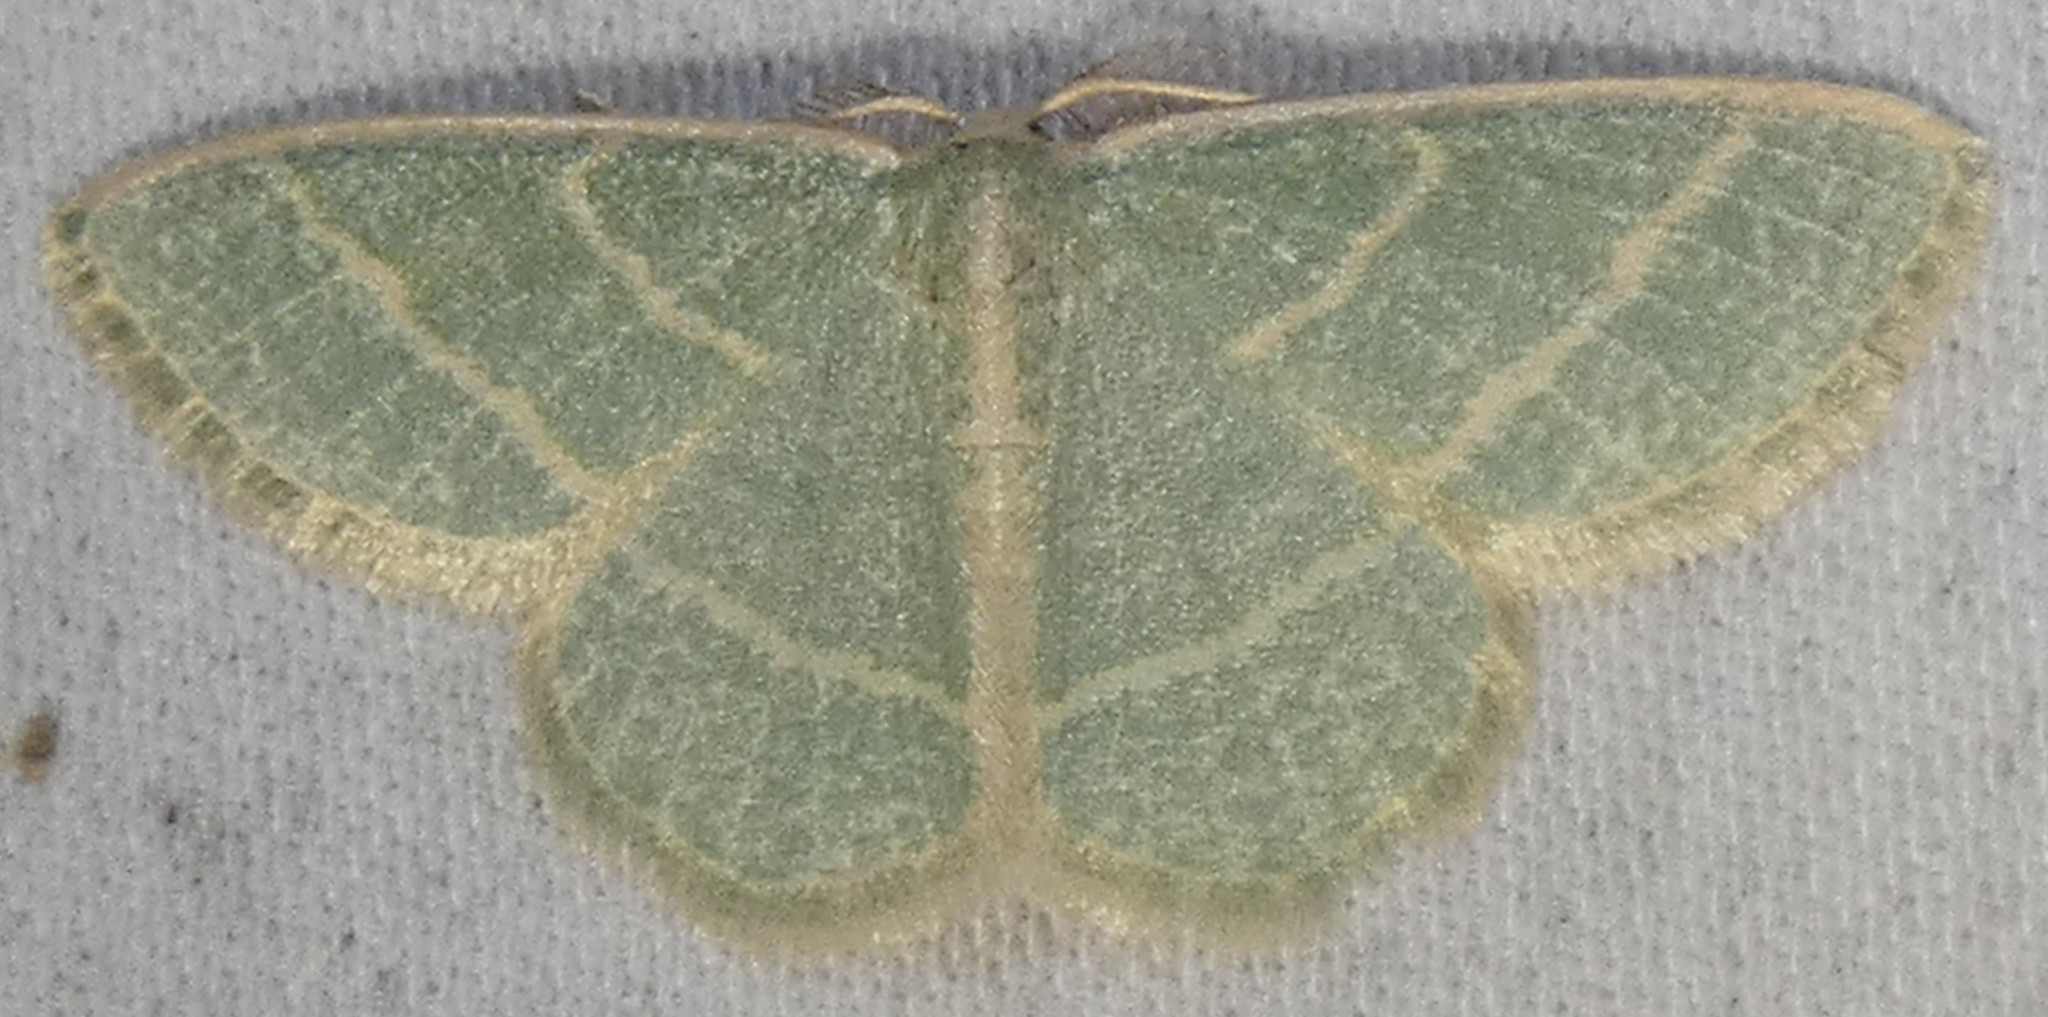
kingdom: Animalia
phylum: Arthropoda
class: Insecta
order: Lepidoptera
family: Geometridae
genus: Chlorochlamys
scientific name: Chlorochlamys chloroleucaria
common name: Blackberry looper
